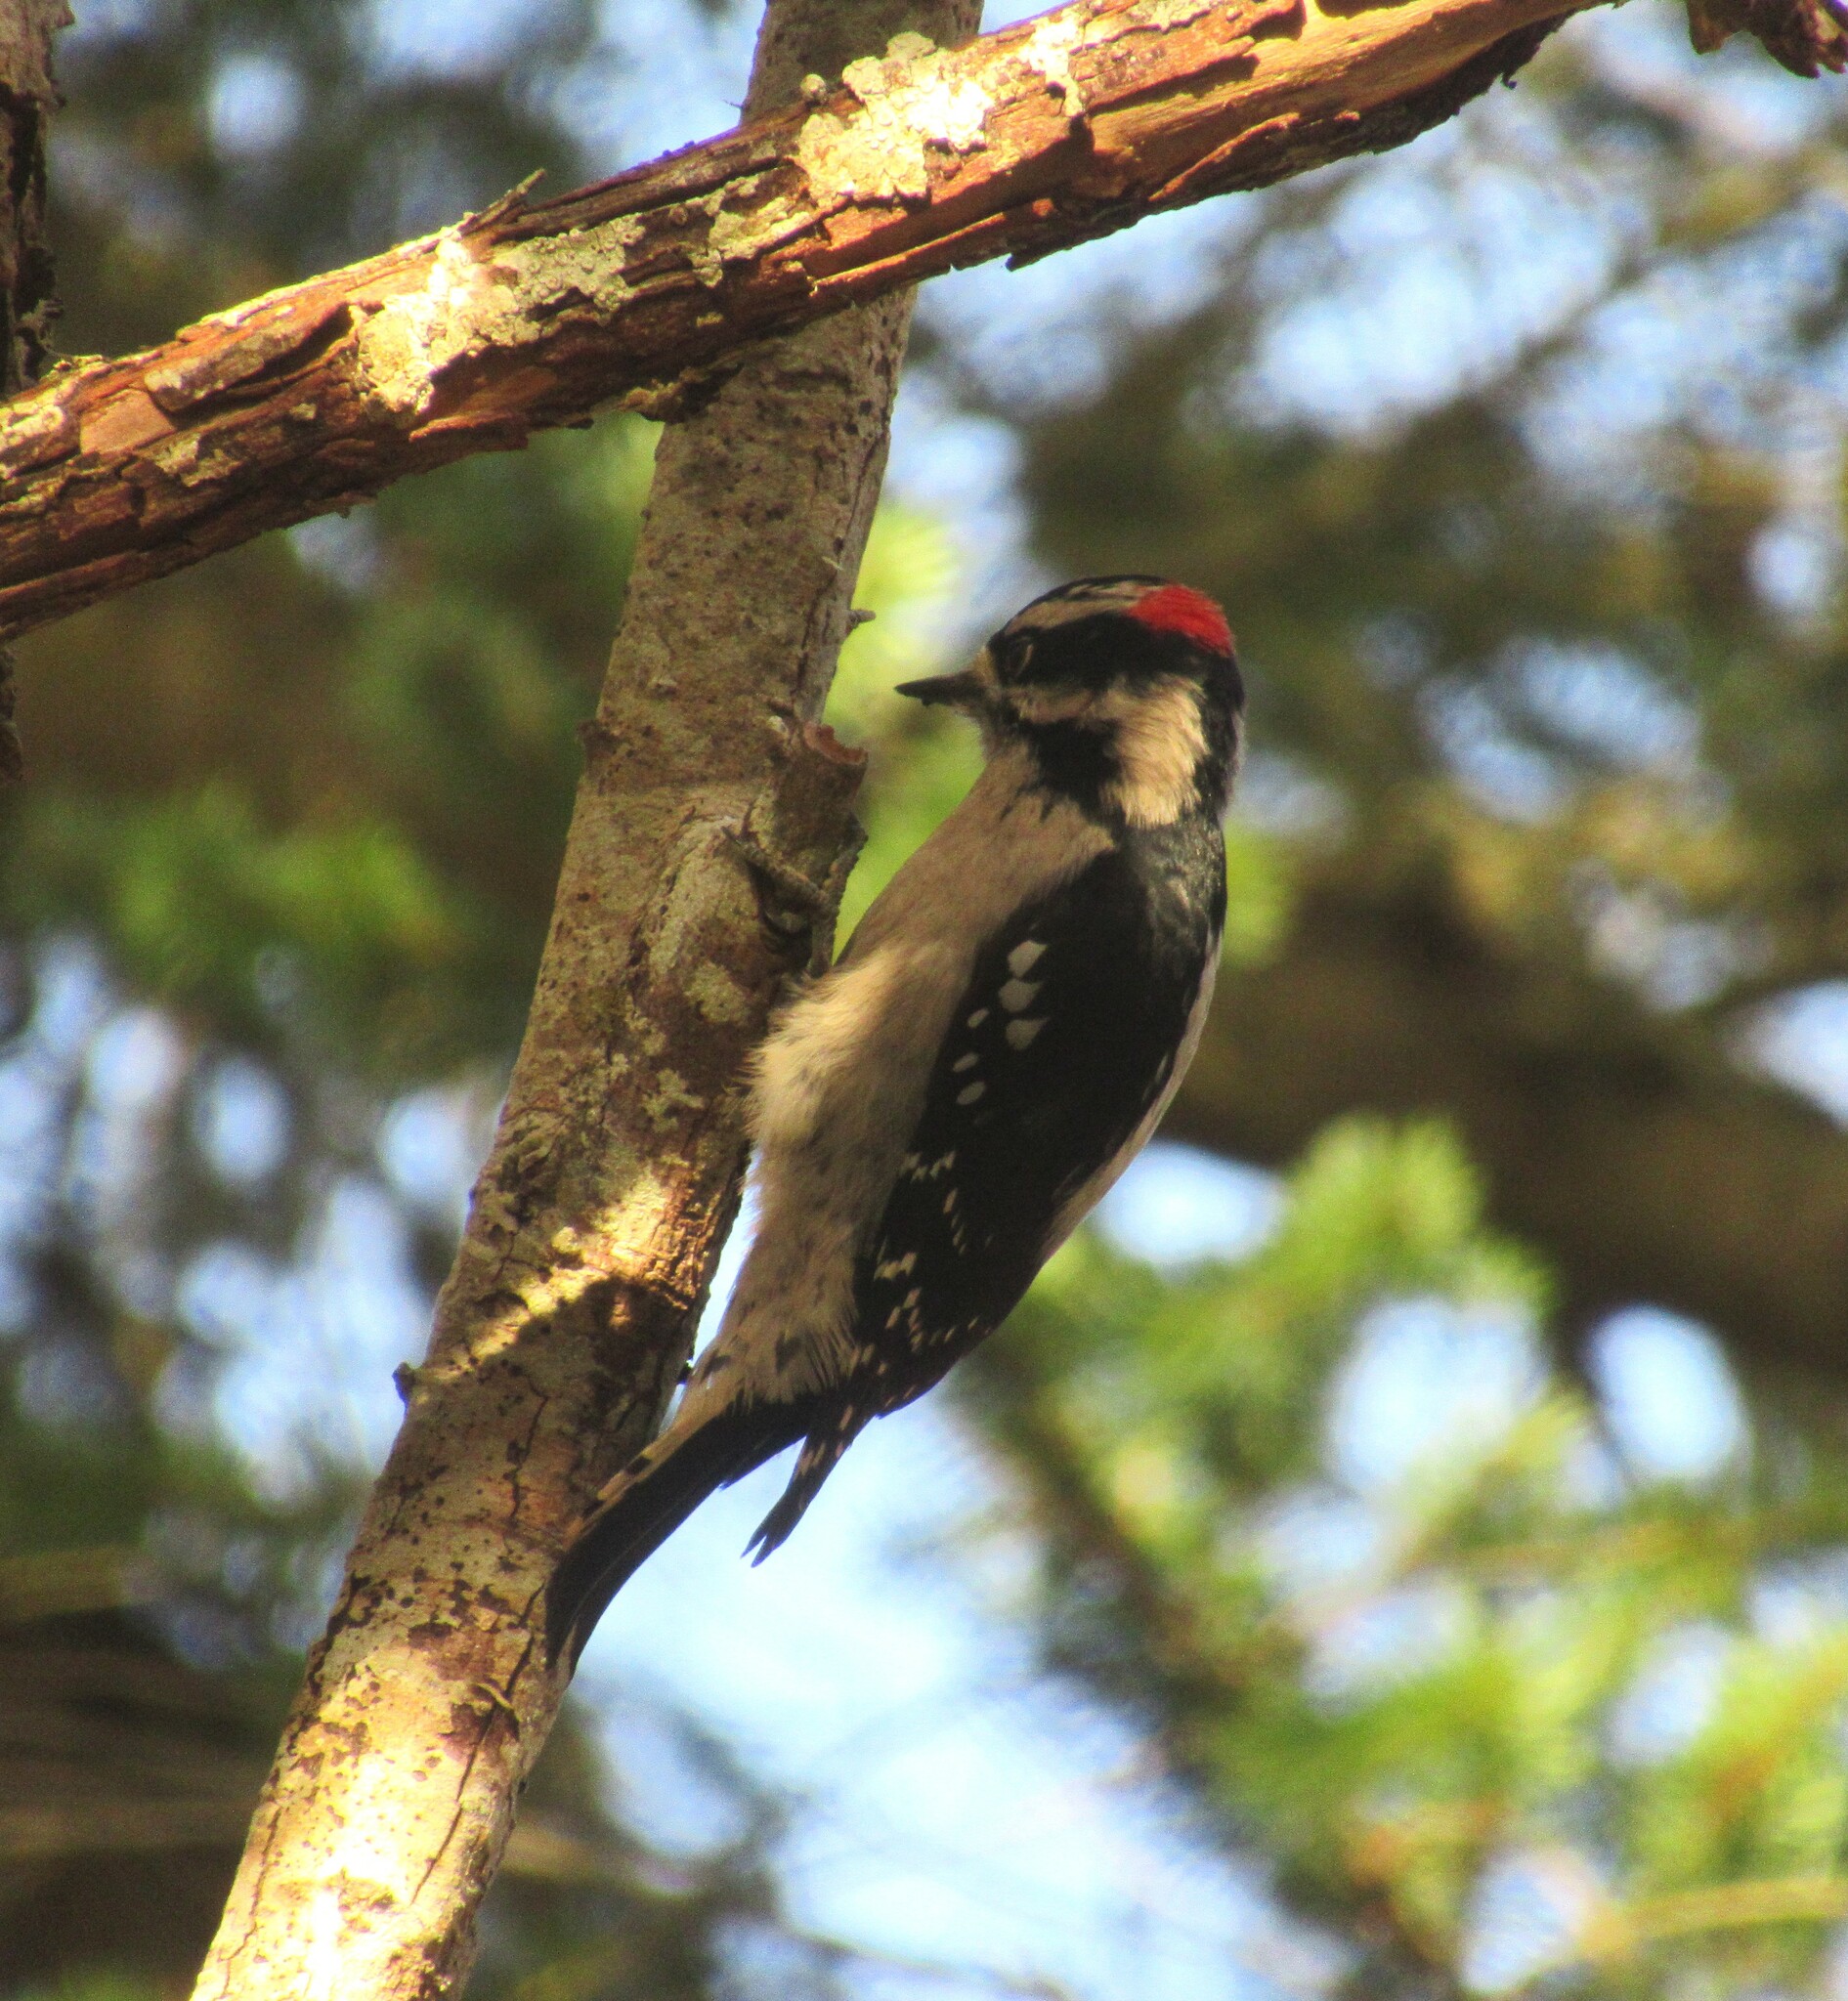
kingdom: Animalia
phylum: Chordata
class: Aves
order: Piciformes
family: Picidae
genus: Dryobates
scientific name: Dryobates pubescens
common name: Downy woodpecker
